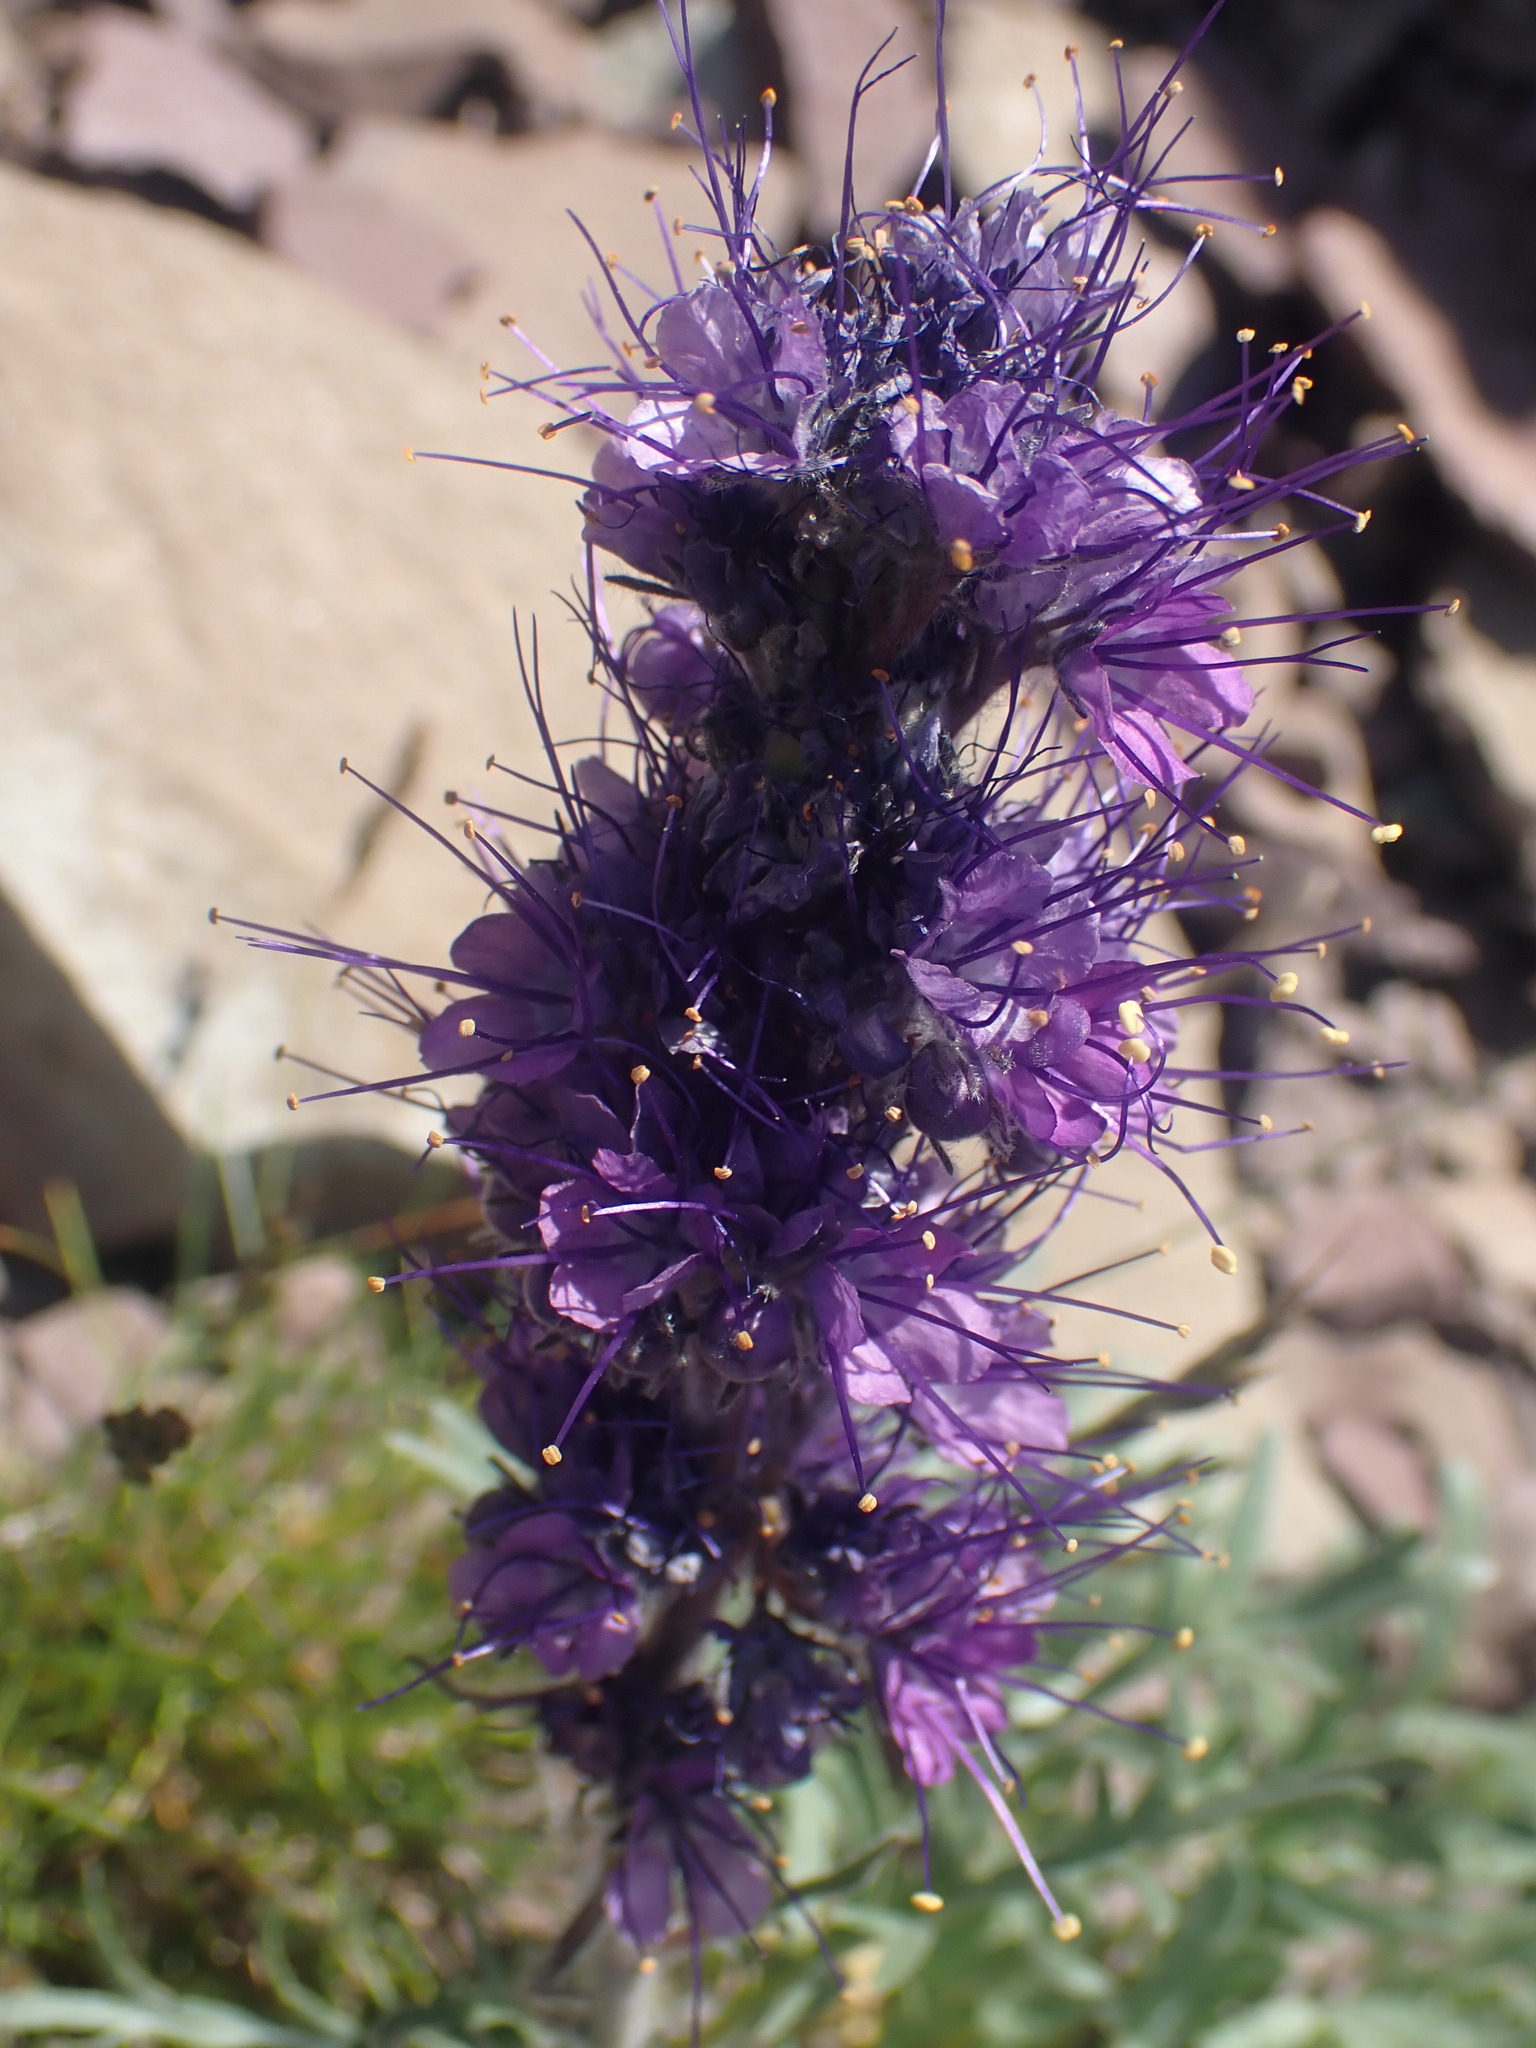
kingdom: Plantae
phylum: Tracheophyta
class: Magnoliopsida
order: Boraginales
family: Hydrophyllaceae
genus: Phacelia
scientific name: Phacelia sericea
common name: Silky phacelia
